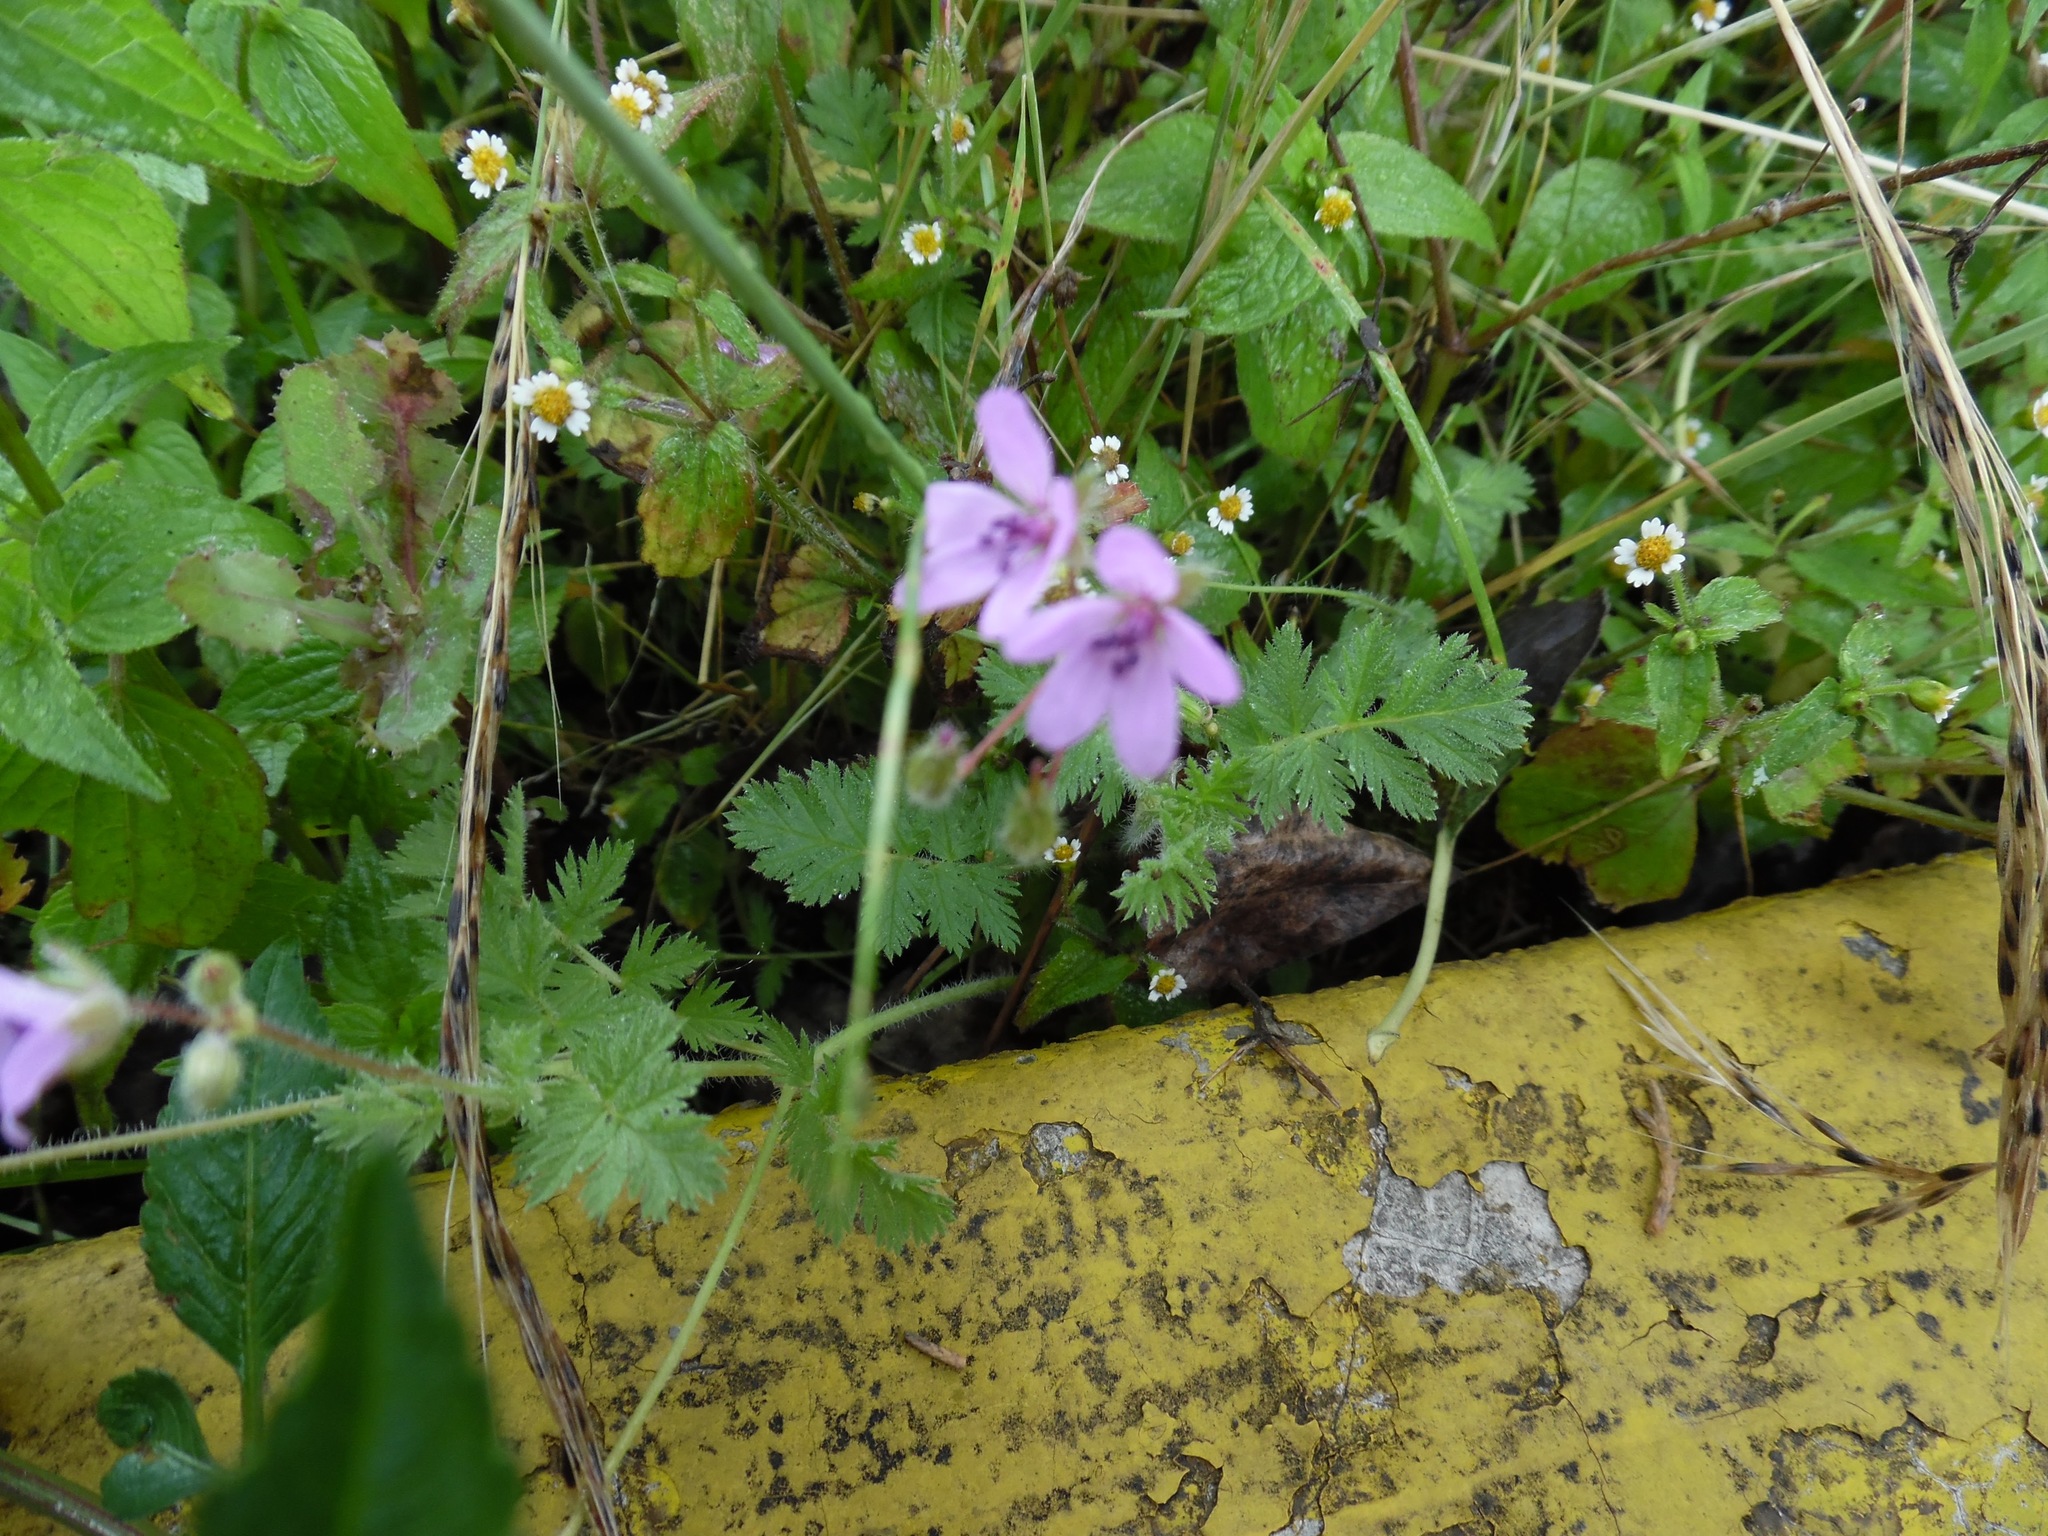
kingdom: Plantae
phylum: Tracheophyta
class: Magnoliopsida
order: Geraniales
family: Geraniaceae
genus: Erodium
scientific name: Erodium cicutarium
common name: Common stork's-bill
